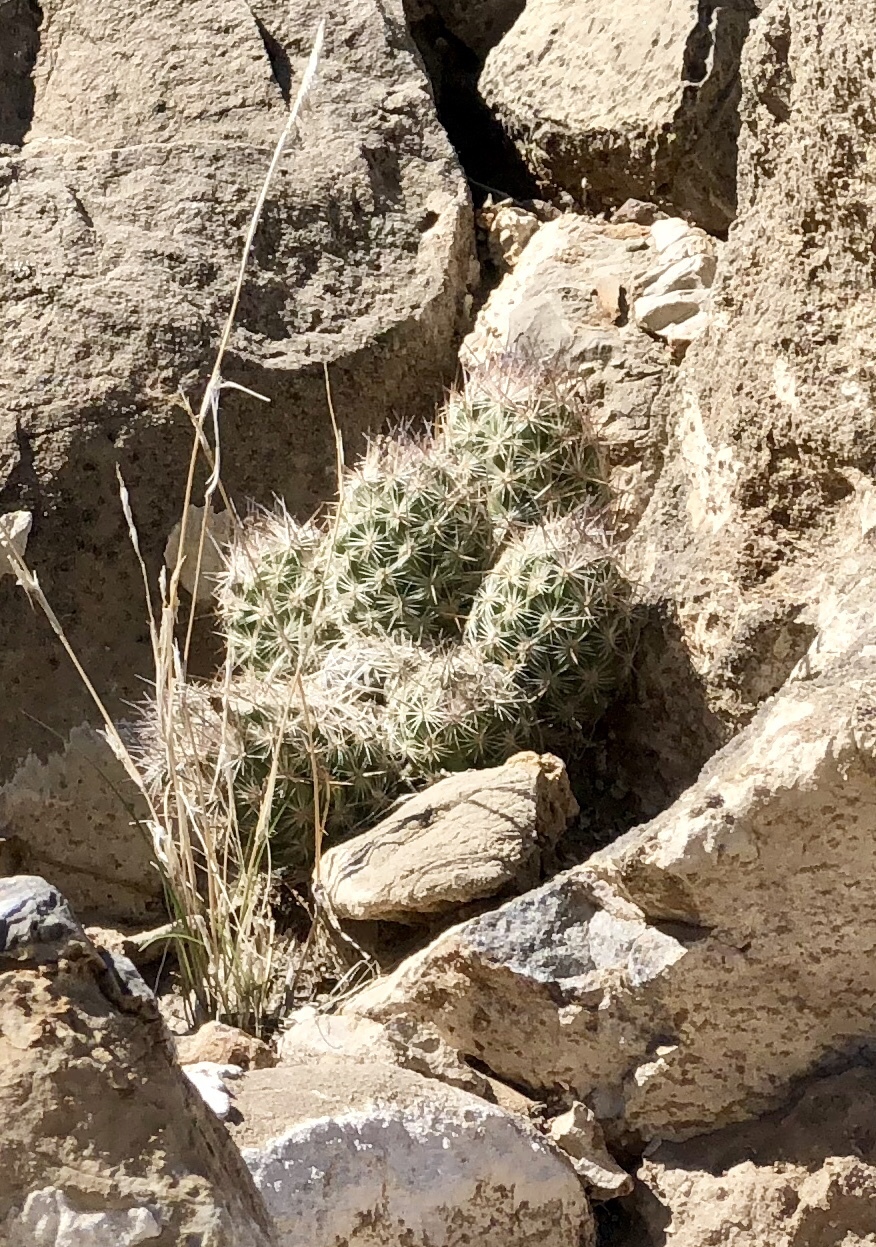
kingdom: Plantae
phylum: Tracheophyta
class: Magnoliopsida
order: Caryophyllales
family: Cactaceae
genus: Pelecyphora
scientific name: Pelecyphora tuberculosa
